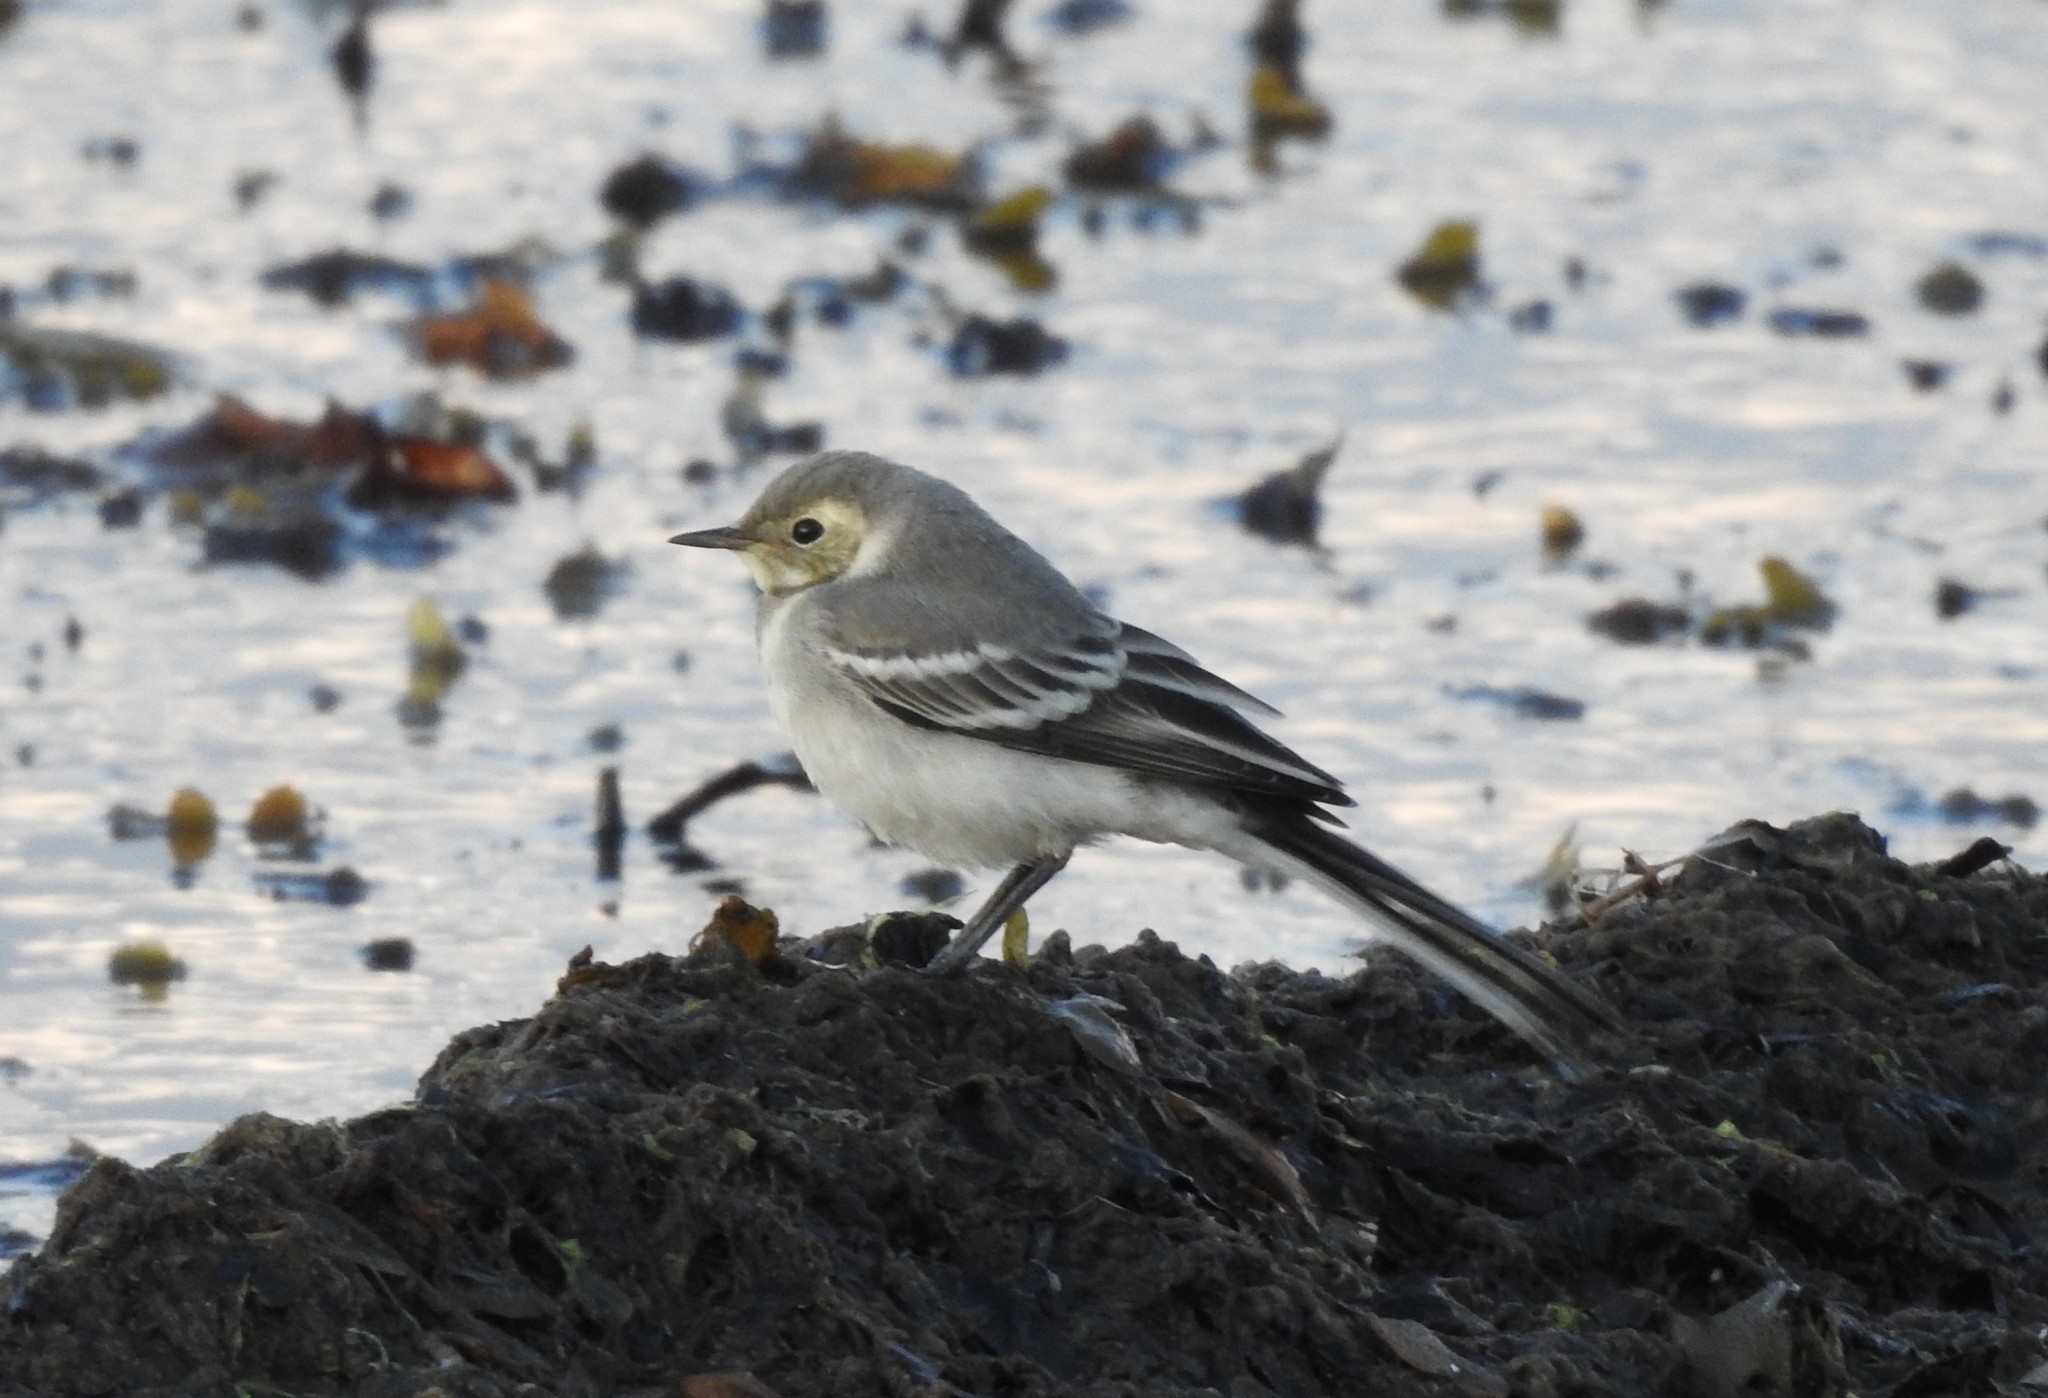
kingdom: Animalia
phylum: Chordata
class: Aves
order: Passeriformes
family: Motacillidae
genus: Motacilla
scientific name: Motacilla alba
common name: White wagtail
